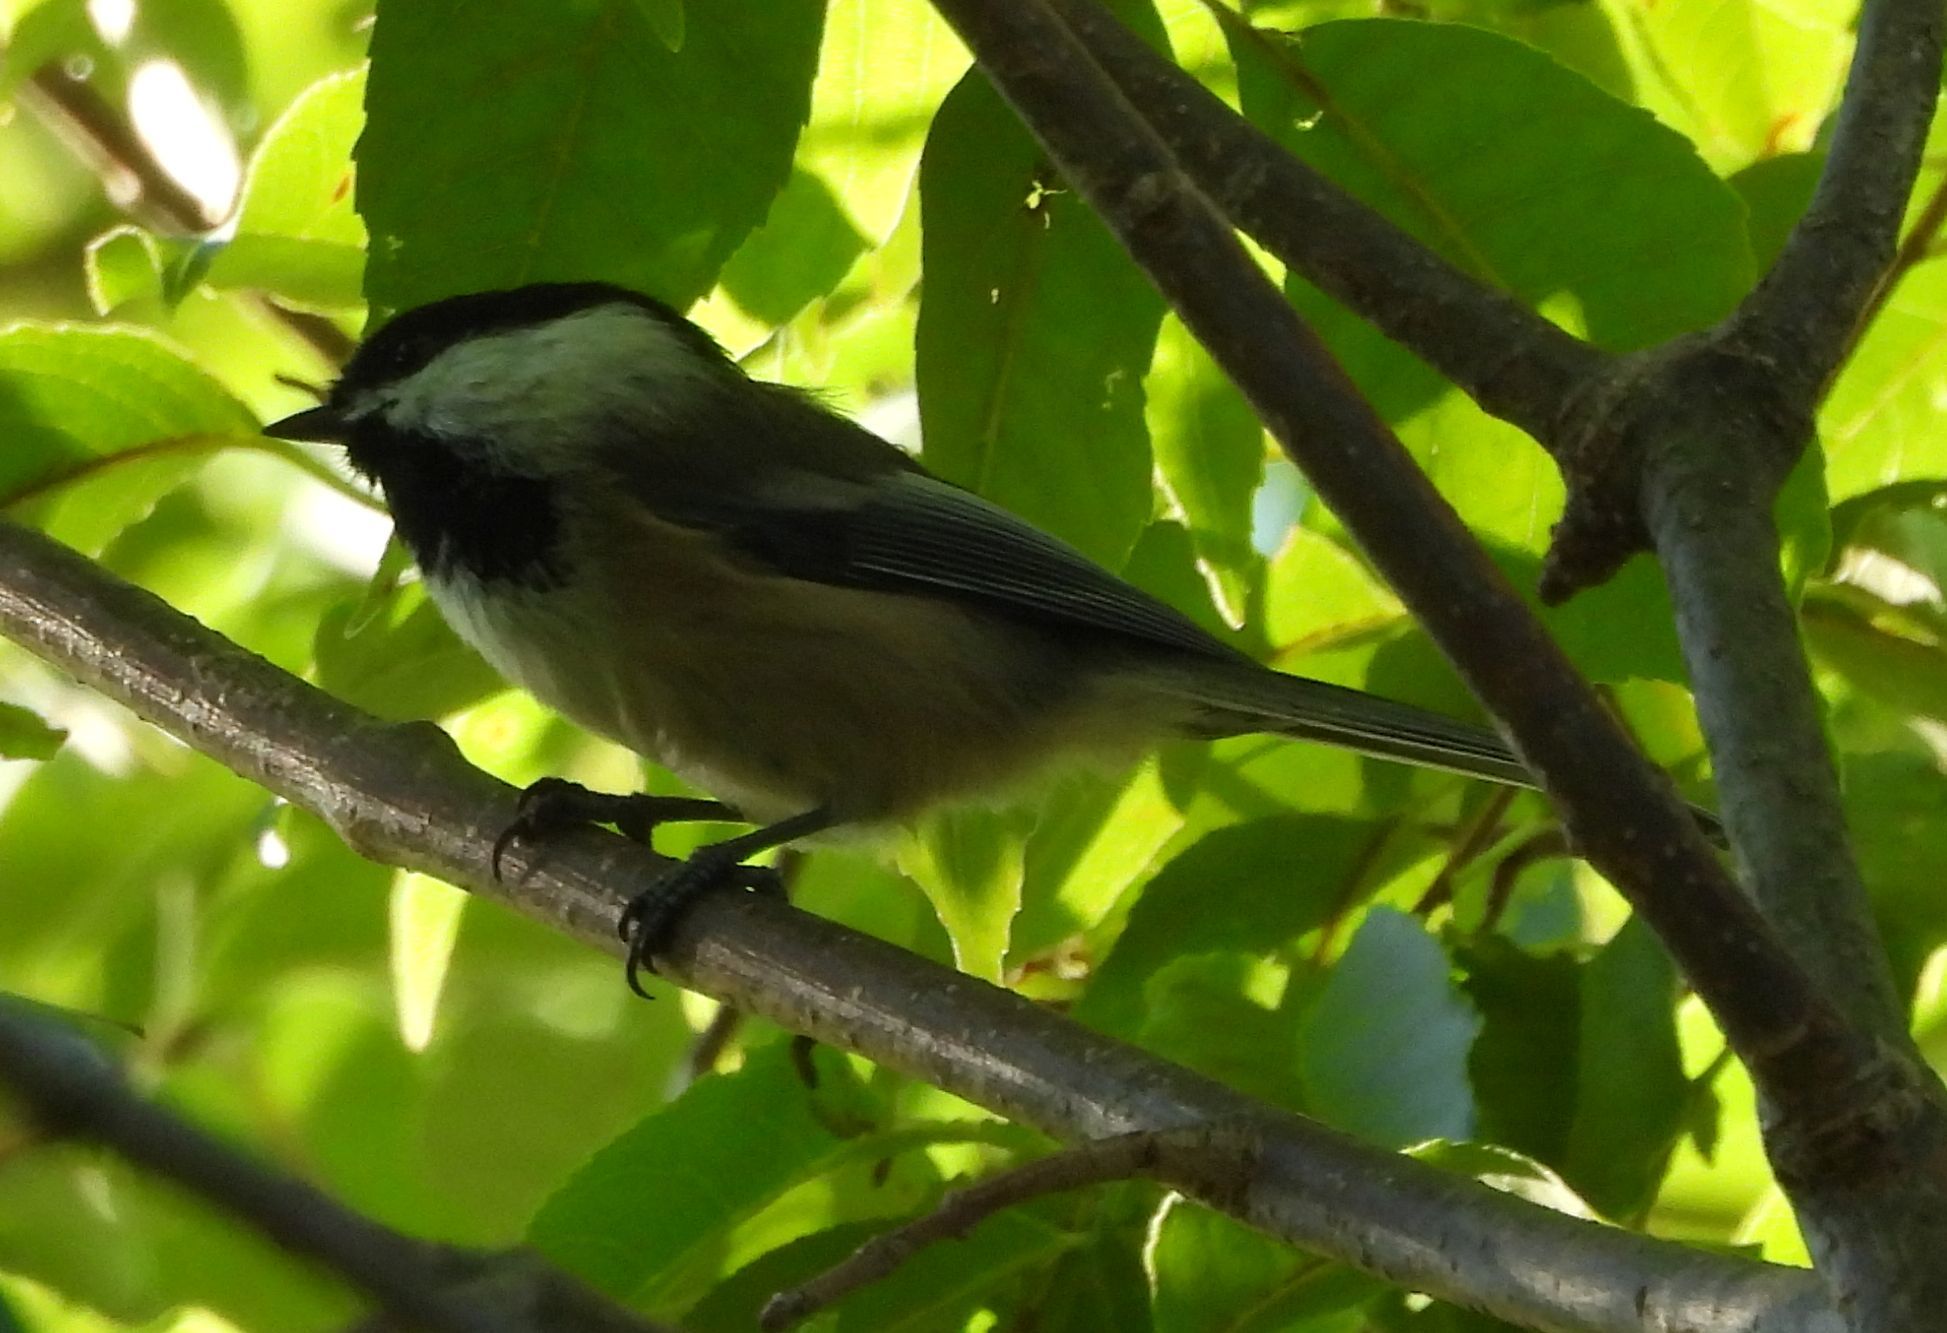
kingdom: Animalia
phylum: Chordata
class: Aves
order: Passeriformes
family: Paridae
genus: Poecile
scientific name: Poecile atricapillus
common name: Black-capped chickadee
